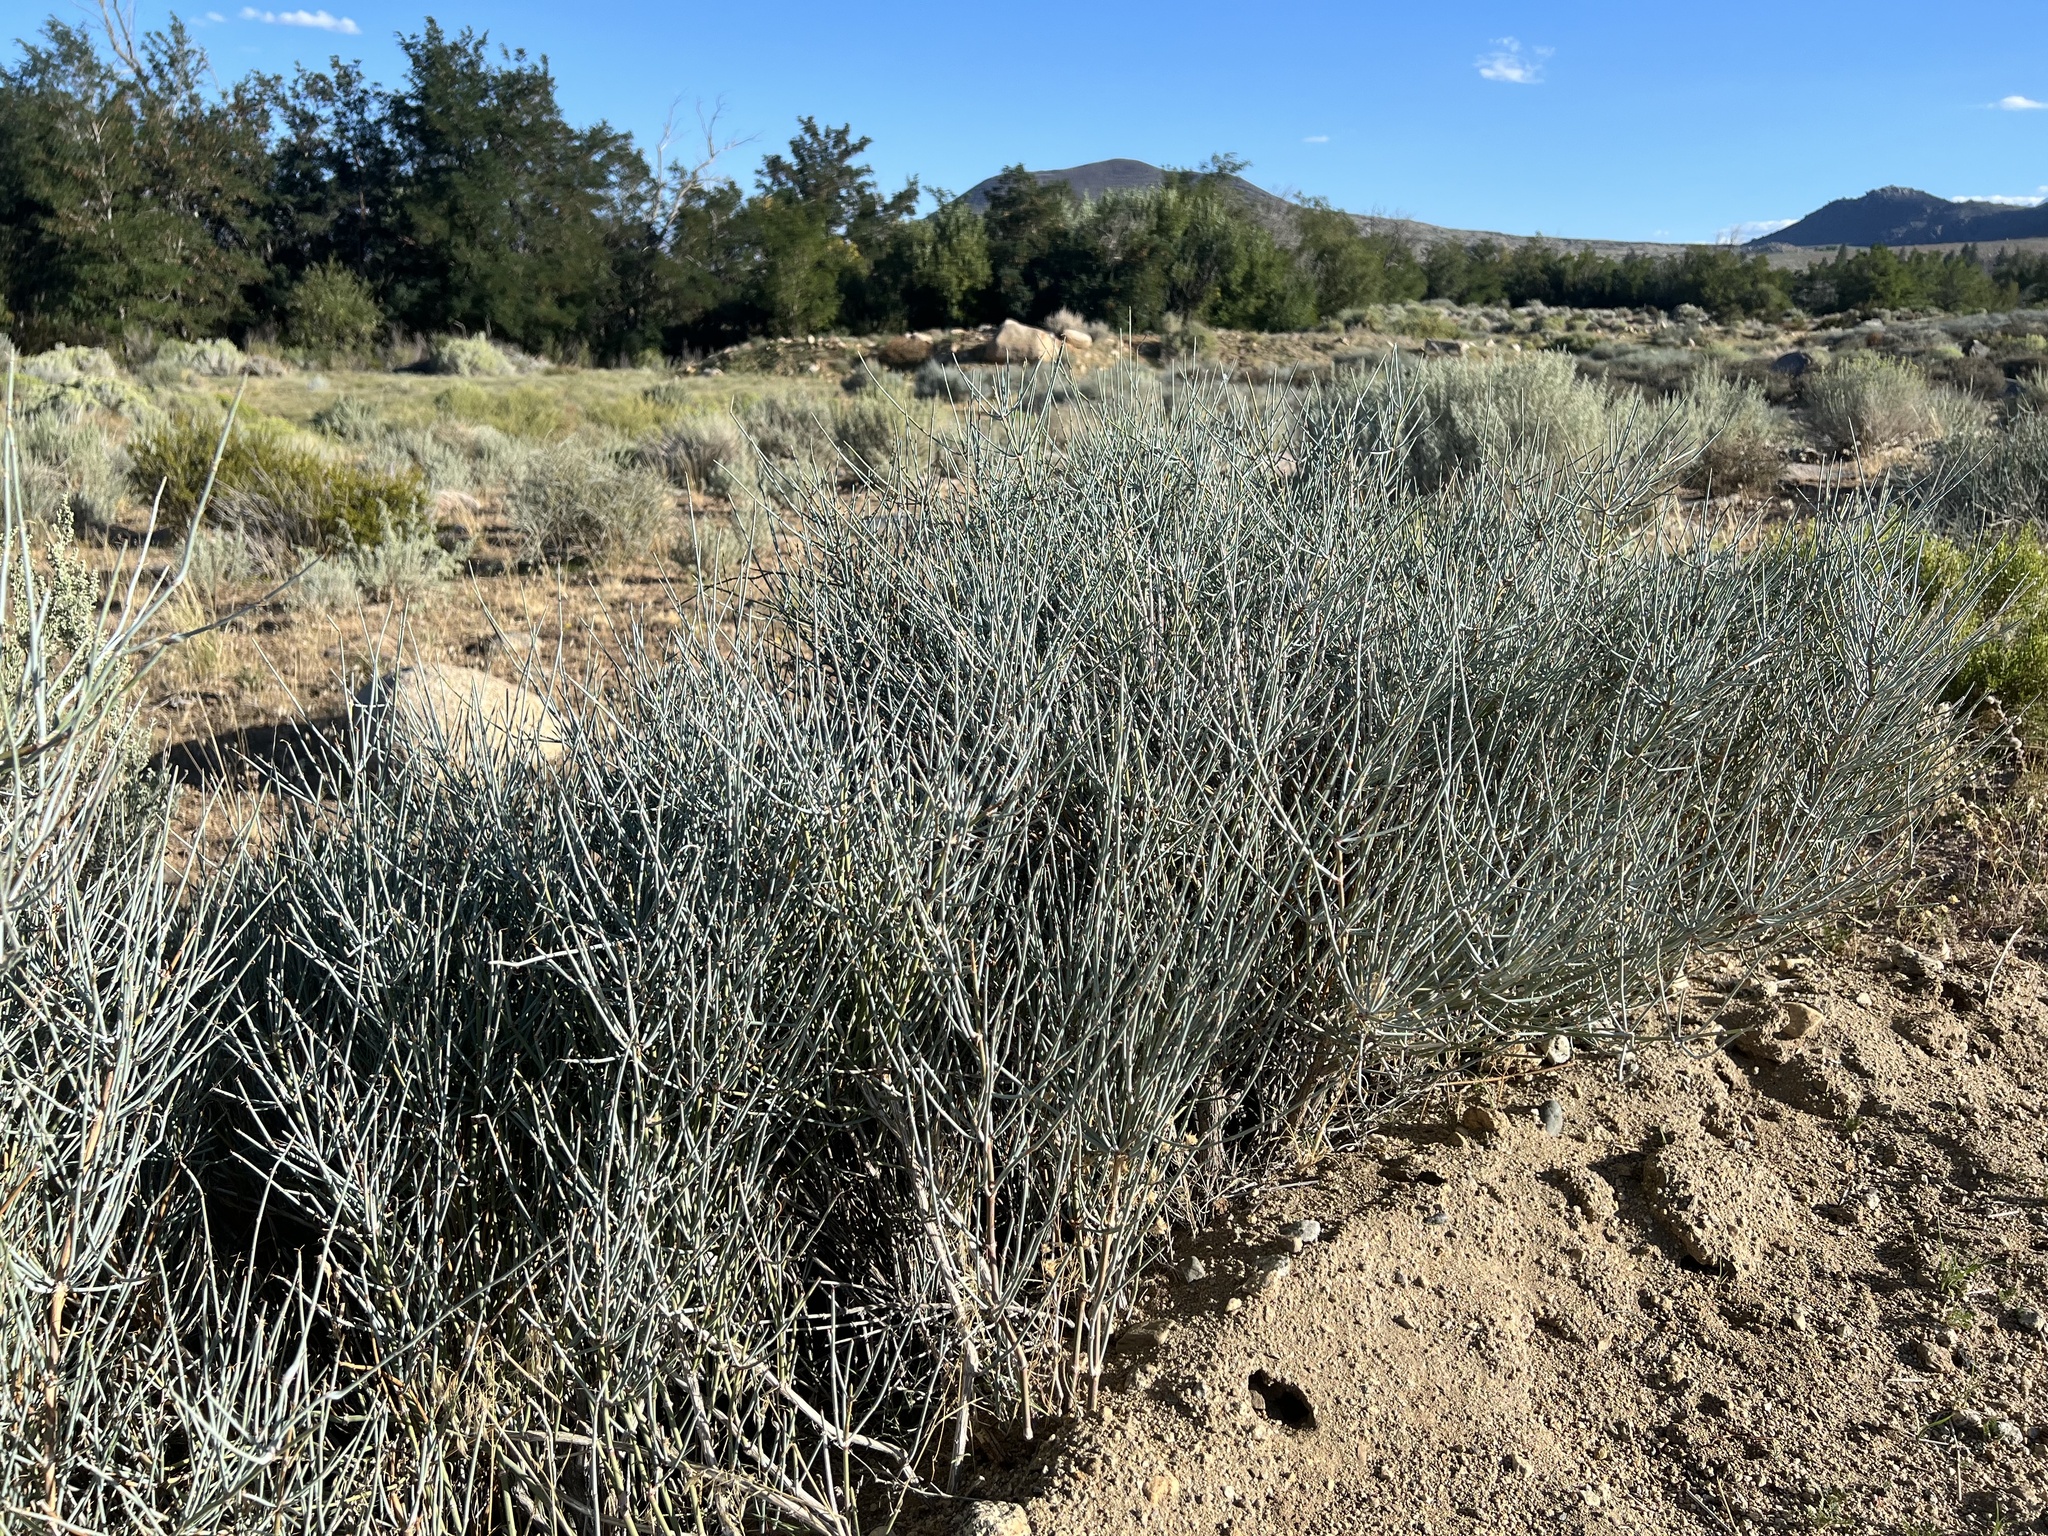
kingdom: Plantae
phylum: Tracheophyta
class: Gnetopsida
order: Ephedrales
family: Ephedraceae
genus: Ephedra
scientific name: Ephedra nevadensis
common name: Gray ephedra
